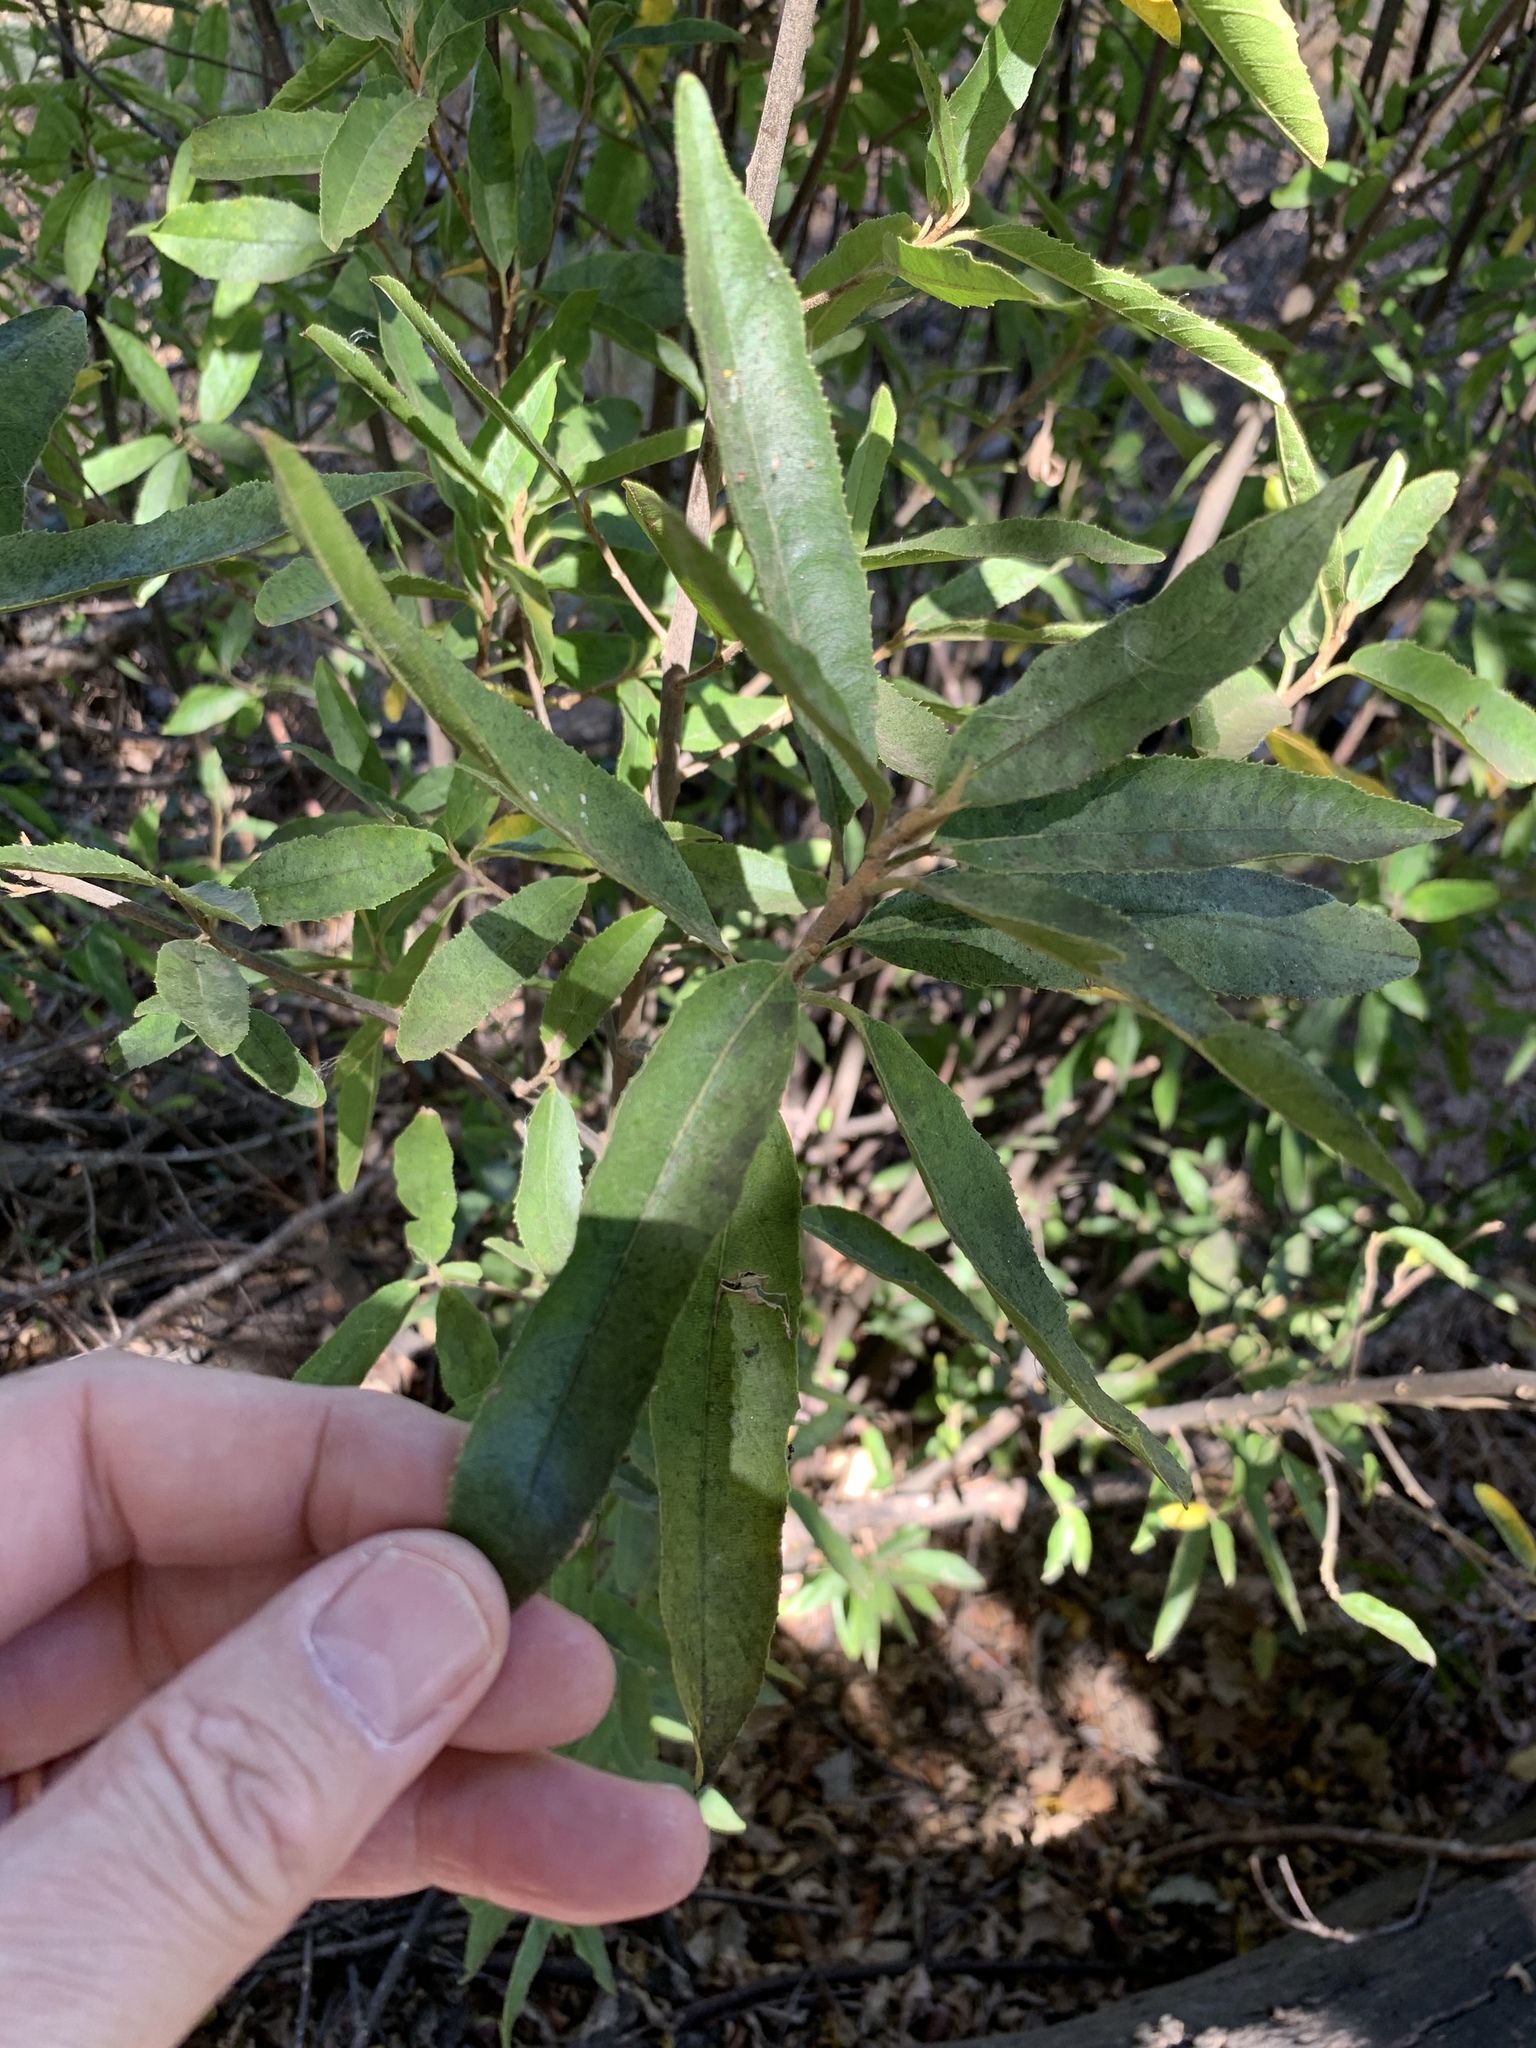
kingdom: Plantae
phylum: Tracheophyta
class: Magnoliopsida
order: Malpighiales
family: Achariaceae
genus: Kiggelaria
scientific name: Kiggelaria africana
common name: Wild peach
